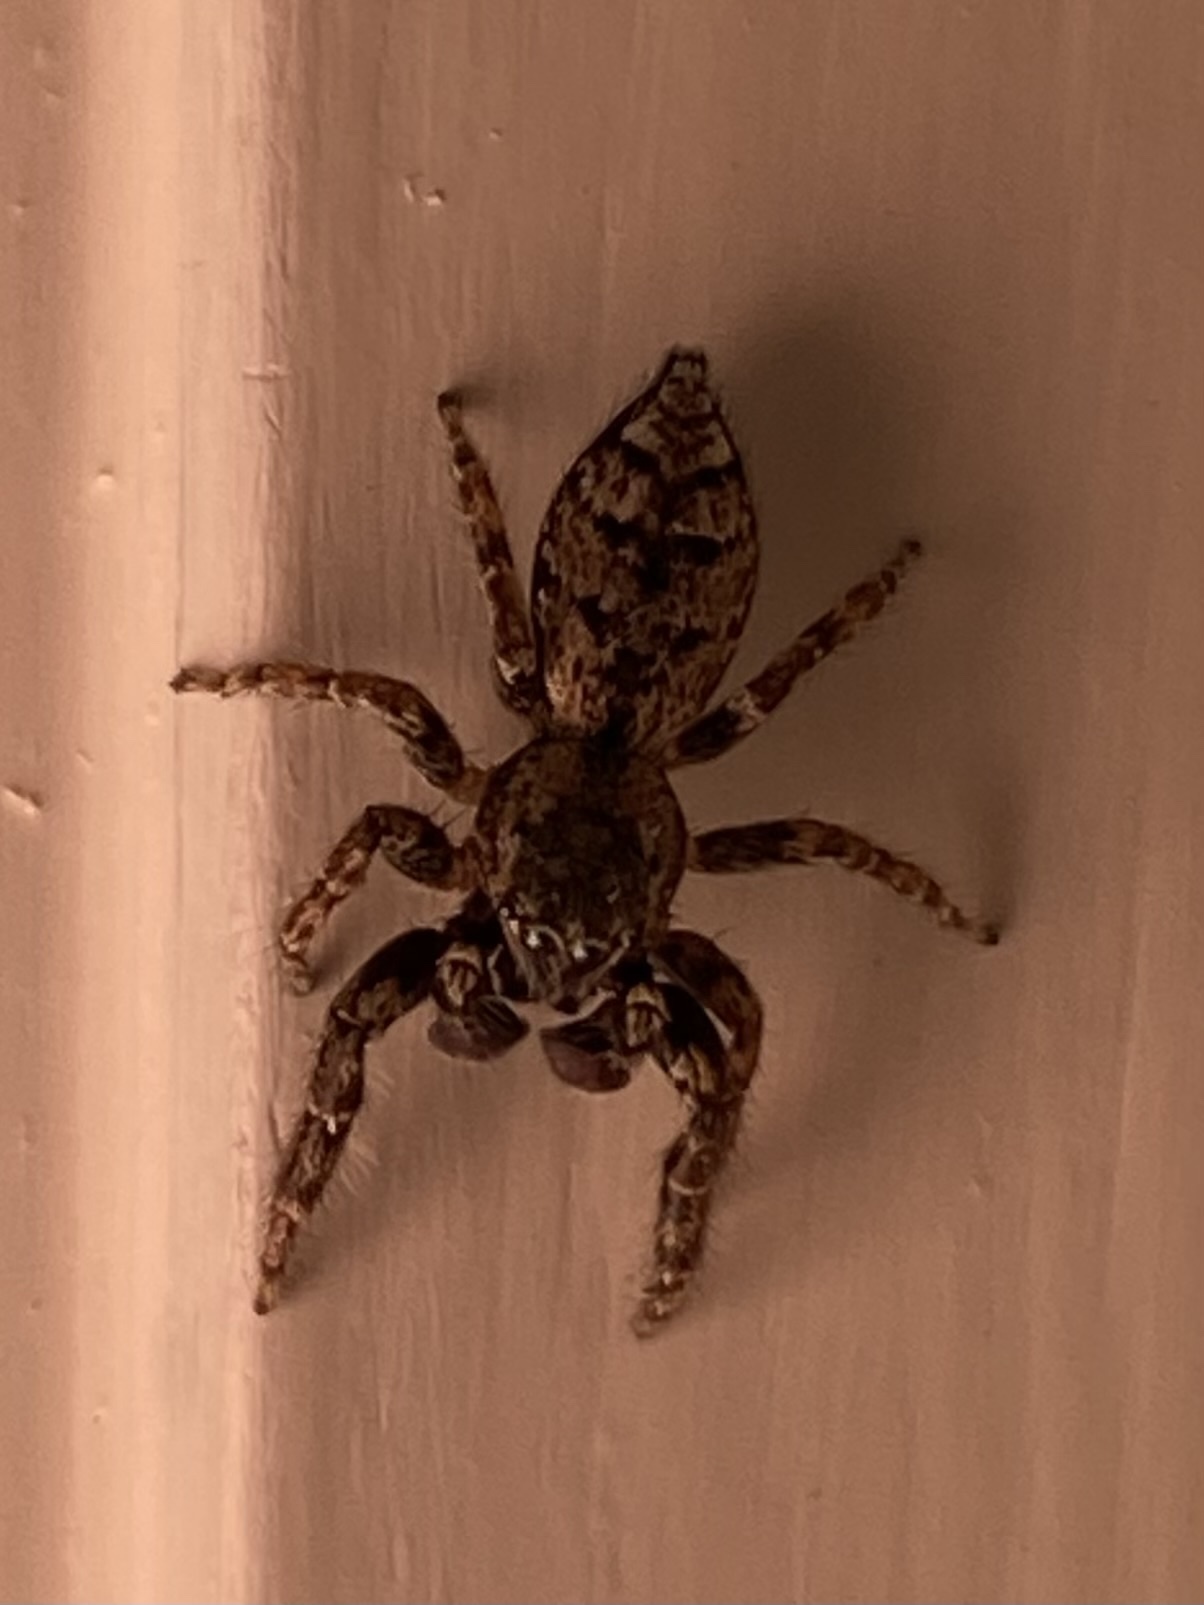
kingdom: Animalia
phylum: Arthropoda
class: Arachnida
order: Araneae
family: Salticidae
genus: Marpissa
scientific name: Marpissa muscosa
